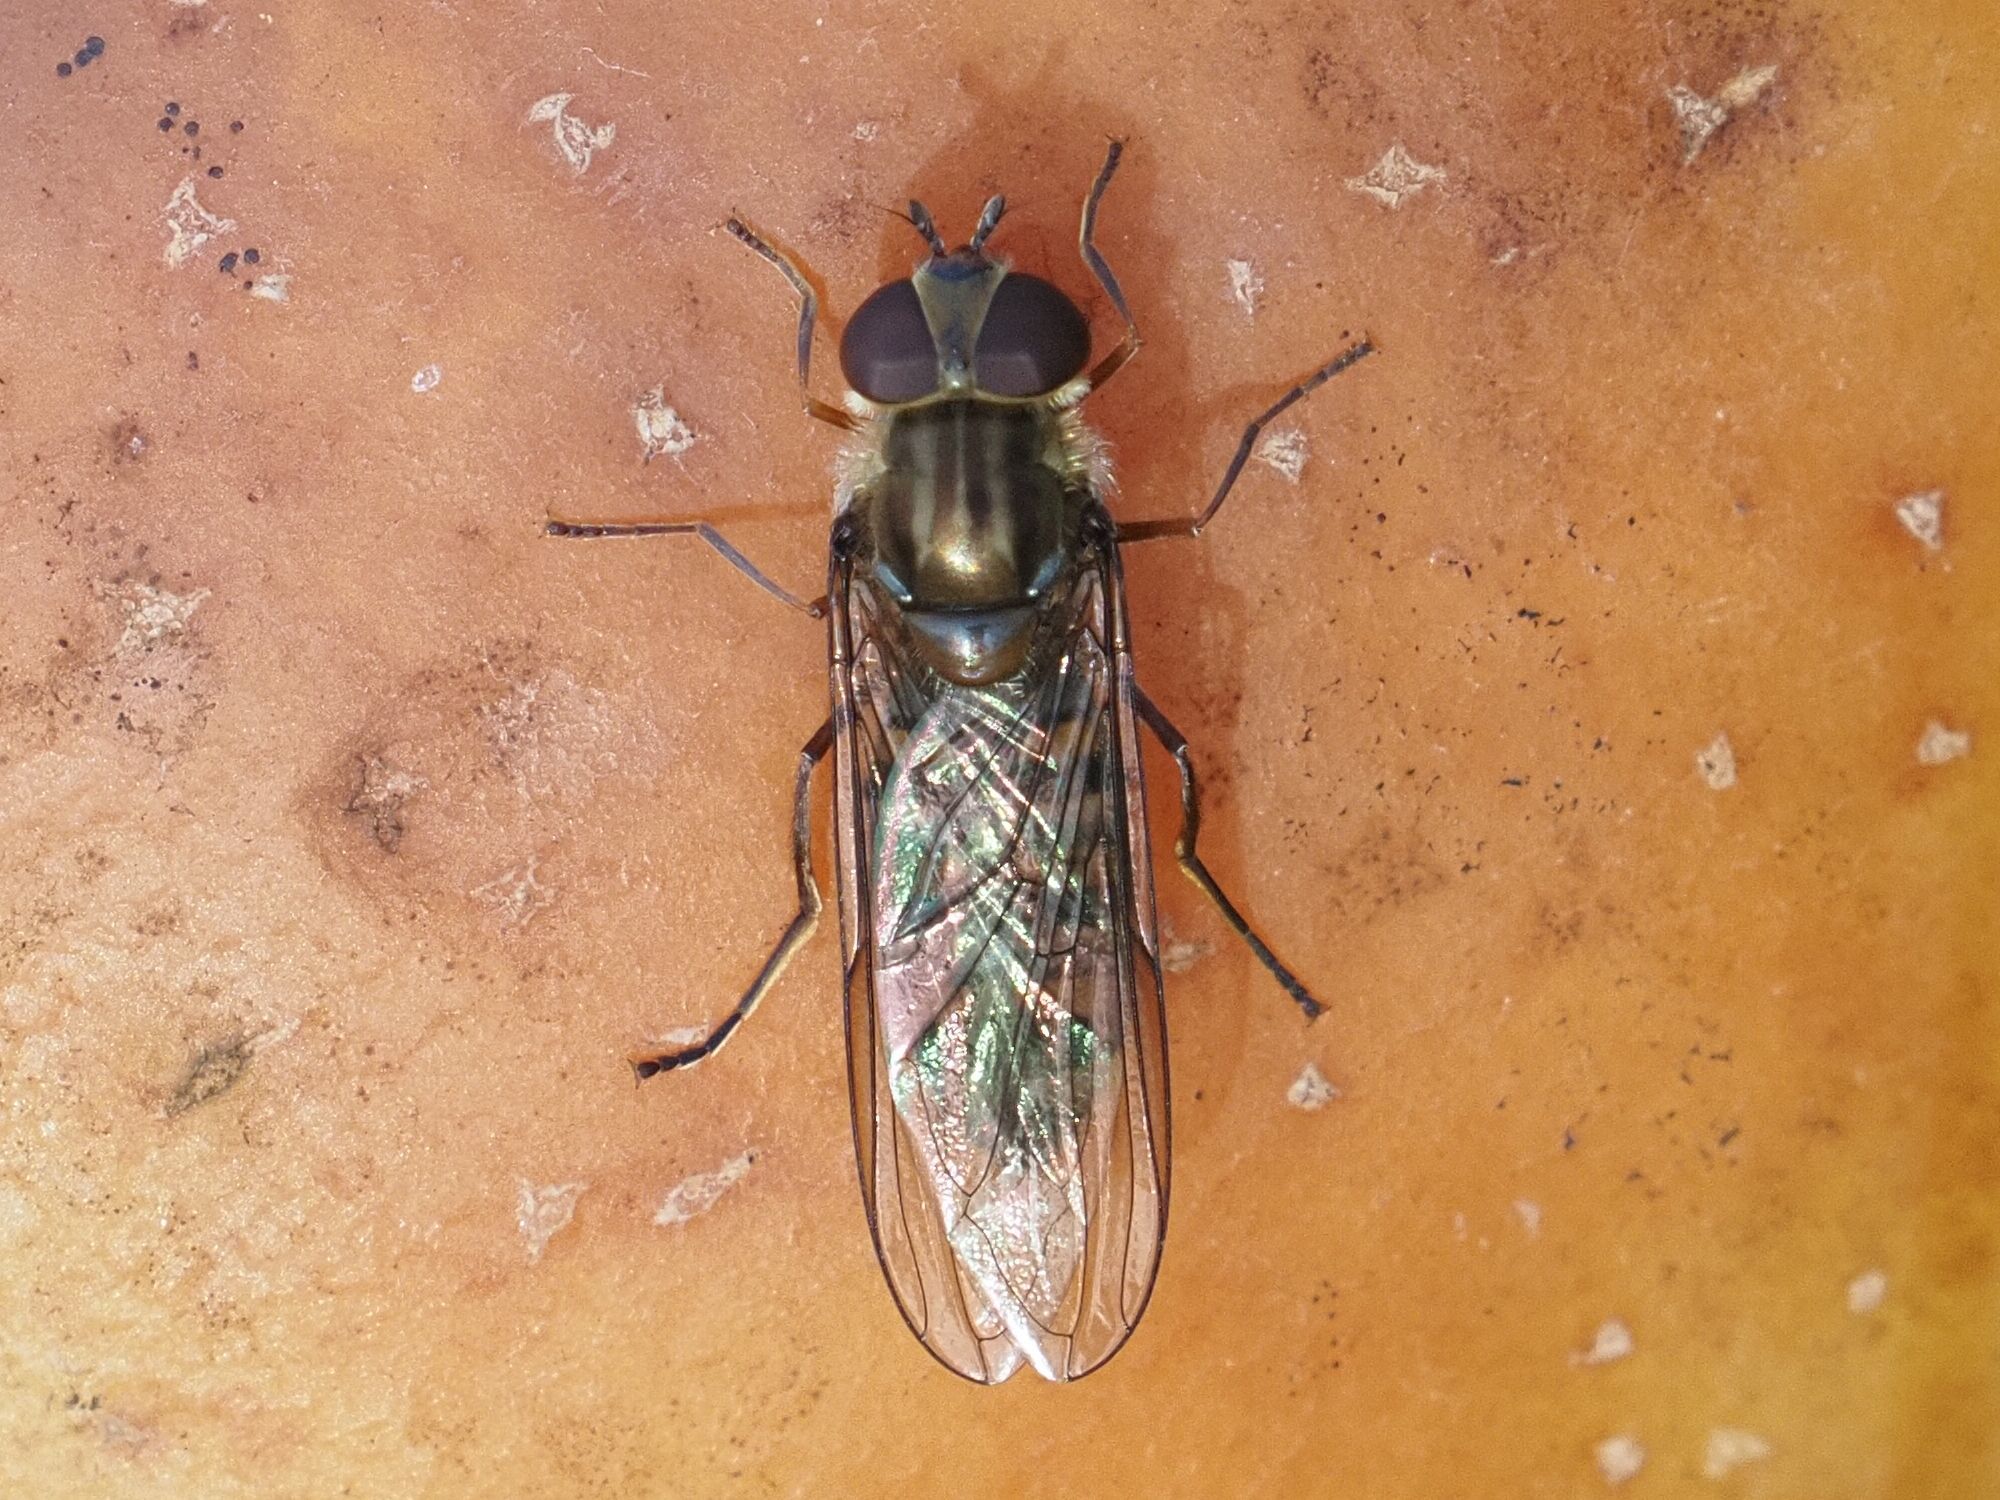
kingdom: Animalia
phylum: Arthropoda
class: Insecta
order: Diptera
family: Syrphidae
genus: Episyrphus
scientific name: Episyrphus balteatus
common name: Marmalade hoverfly
